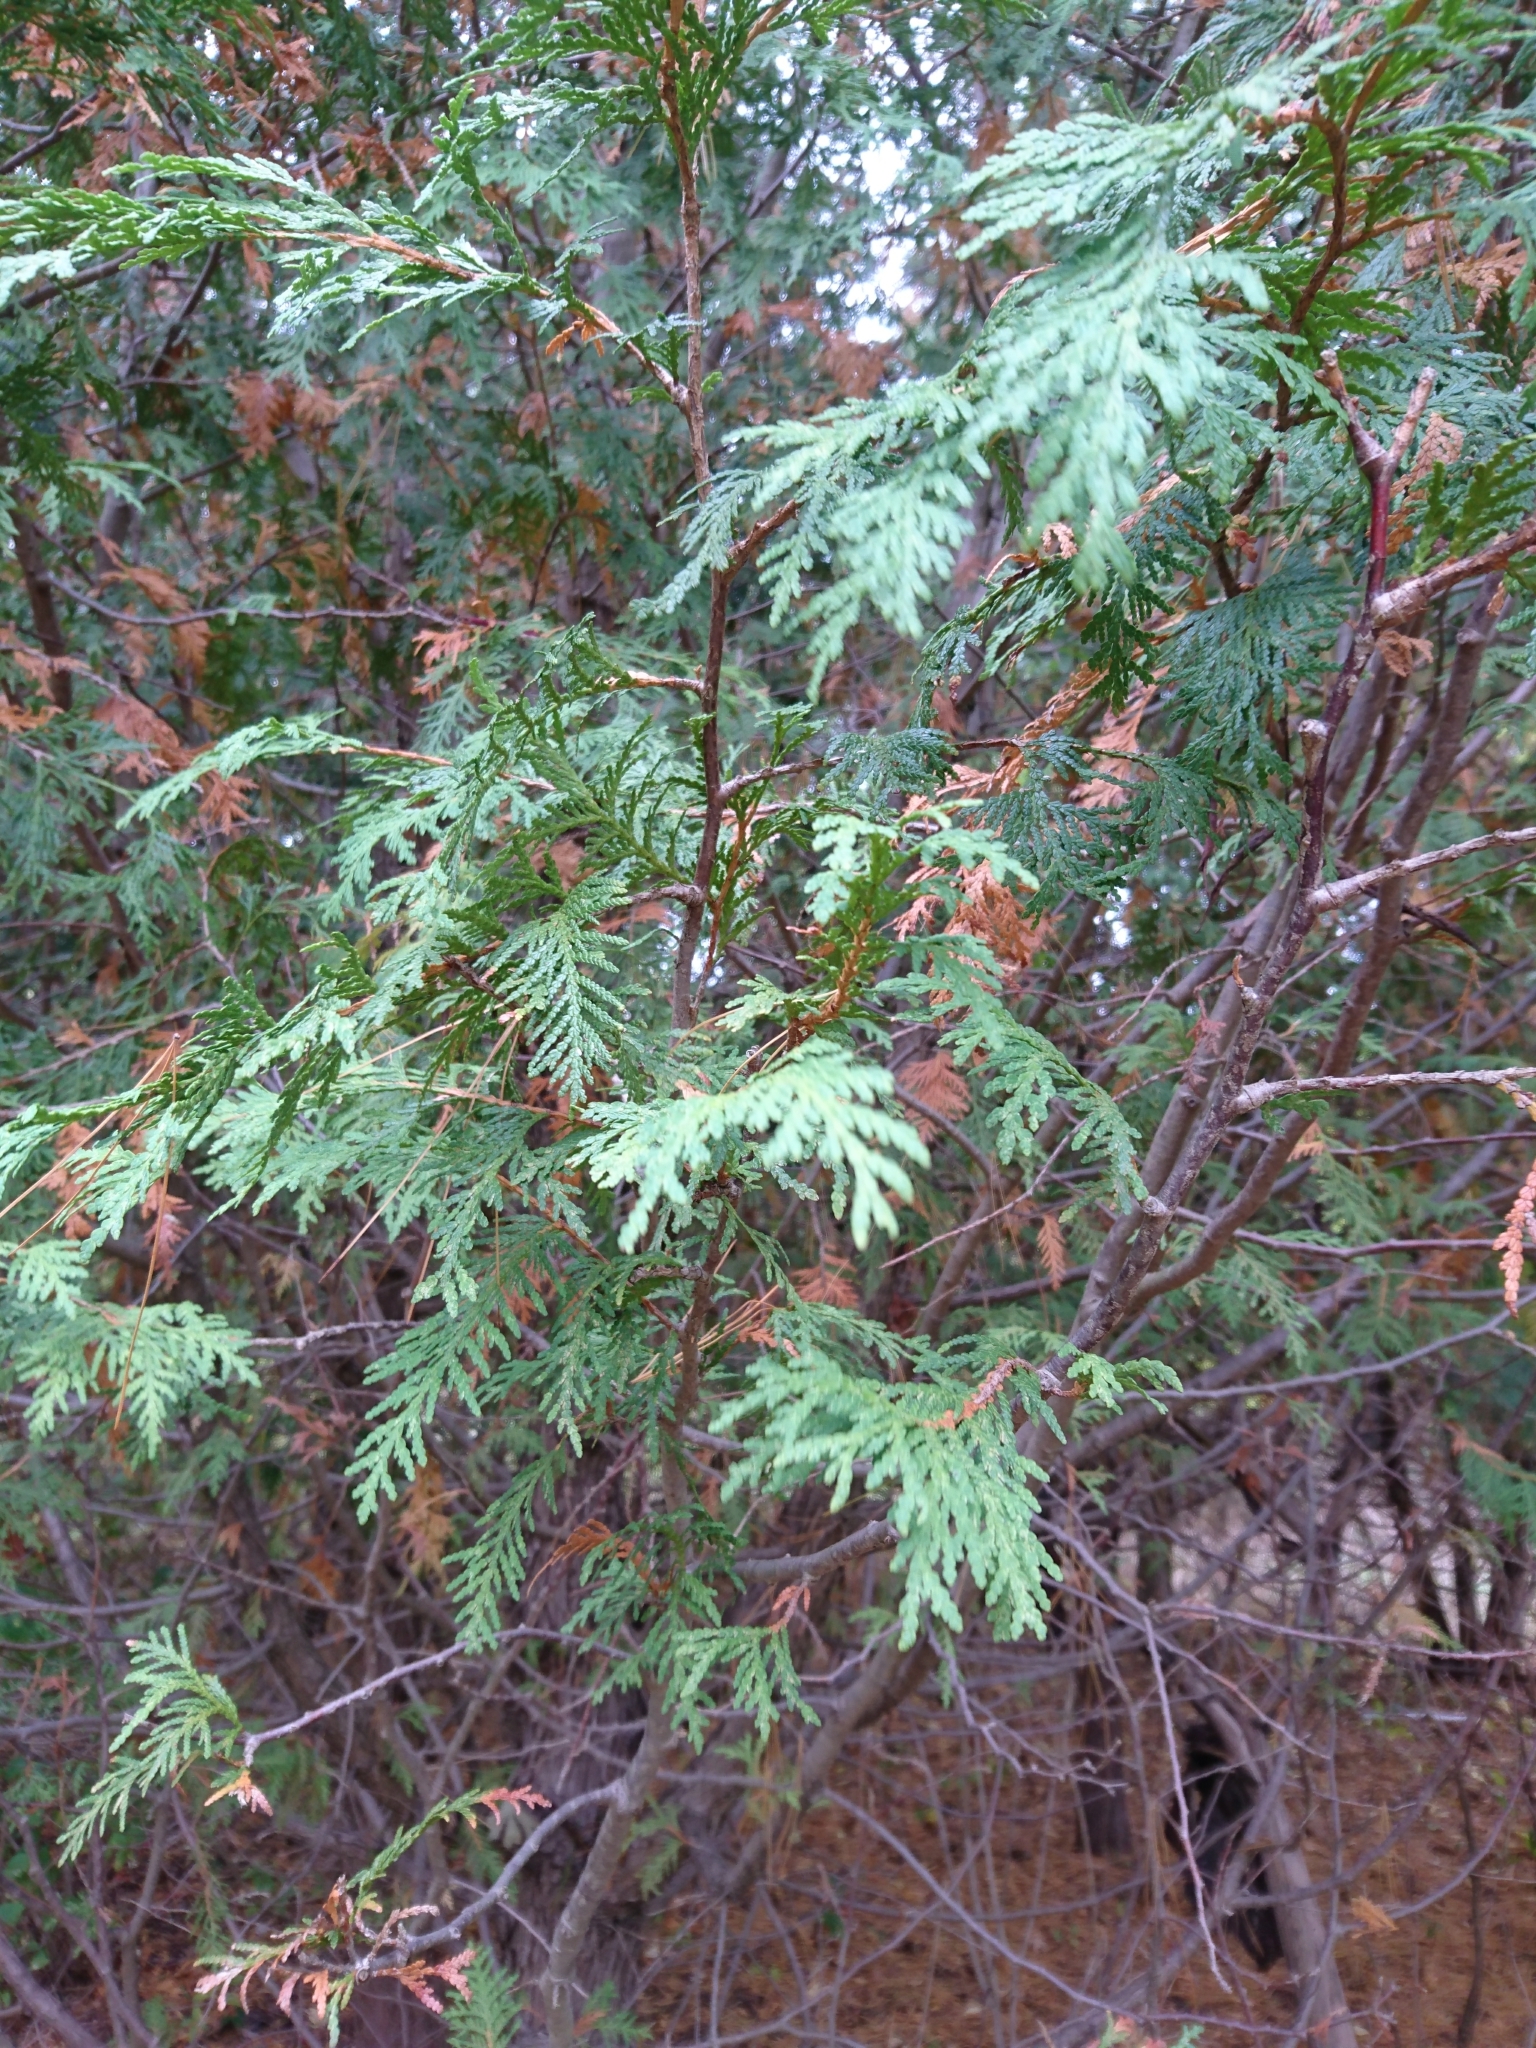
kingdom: Plantae
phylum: Tracheophyta
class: Pinopsida
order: Pinales
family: Cupressaceae
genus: Thuja
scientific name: Thuja occidentalis
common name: Northern white-cedar
